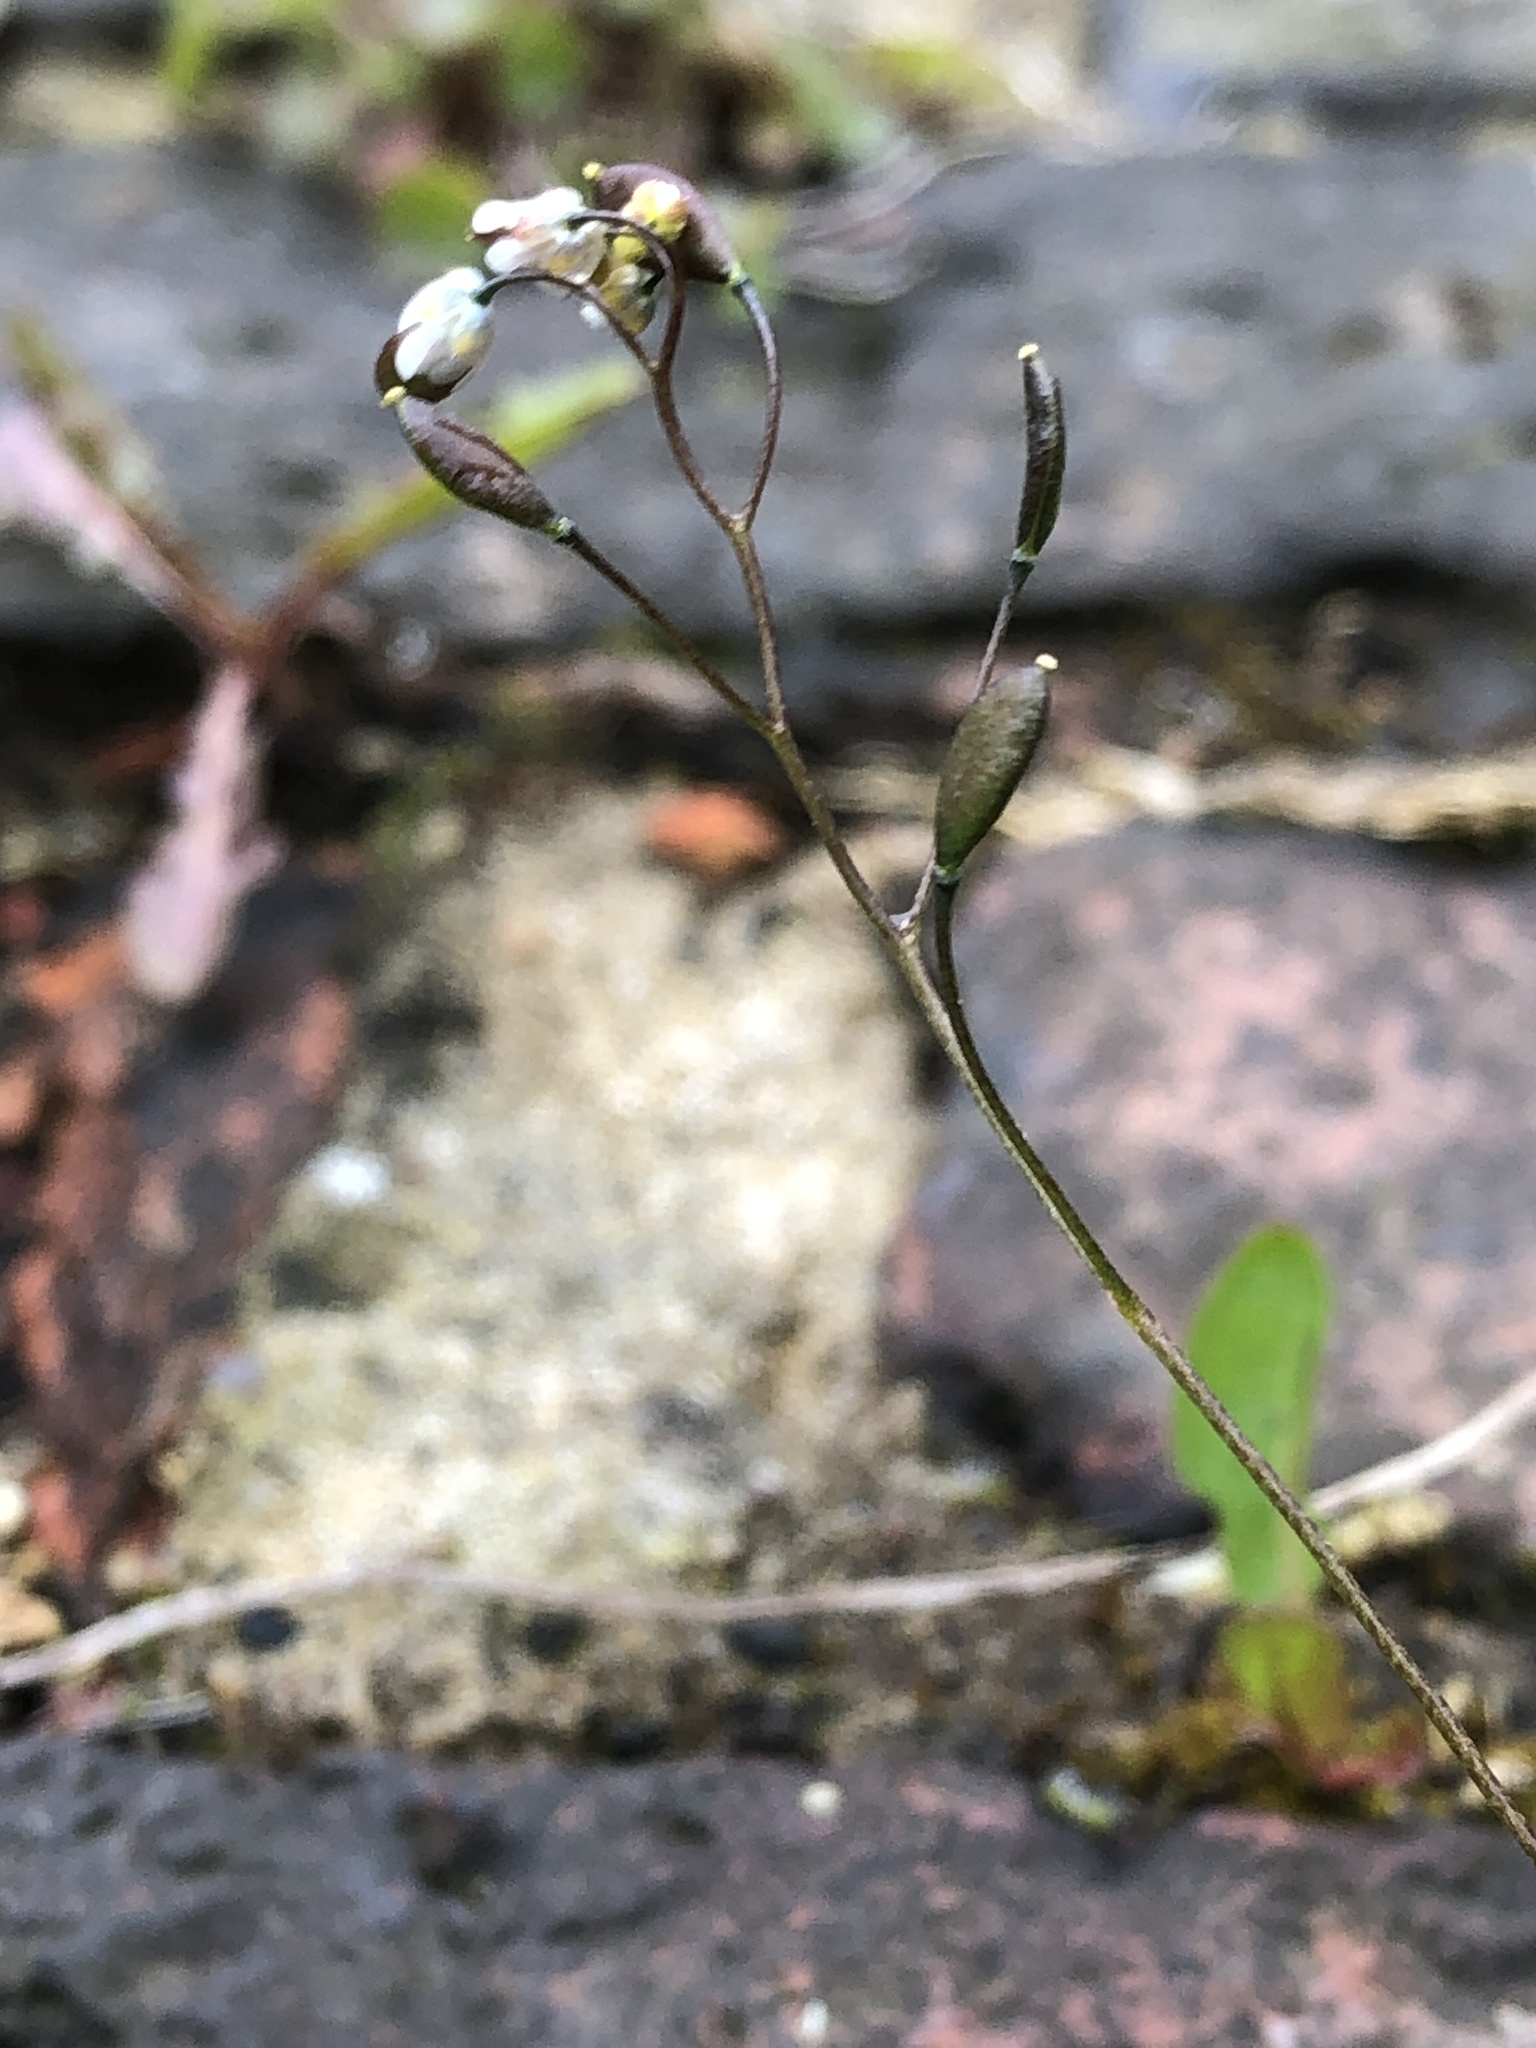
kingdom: Plantae
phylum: Tracheophyta
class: Magnoliopsida
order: Brassicales
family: Brassicaceae
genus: Draba
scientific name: Draba verna
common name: Spring draba
